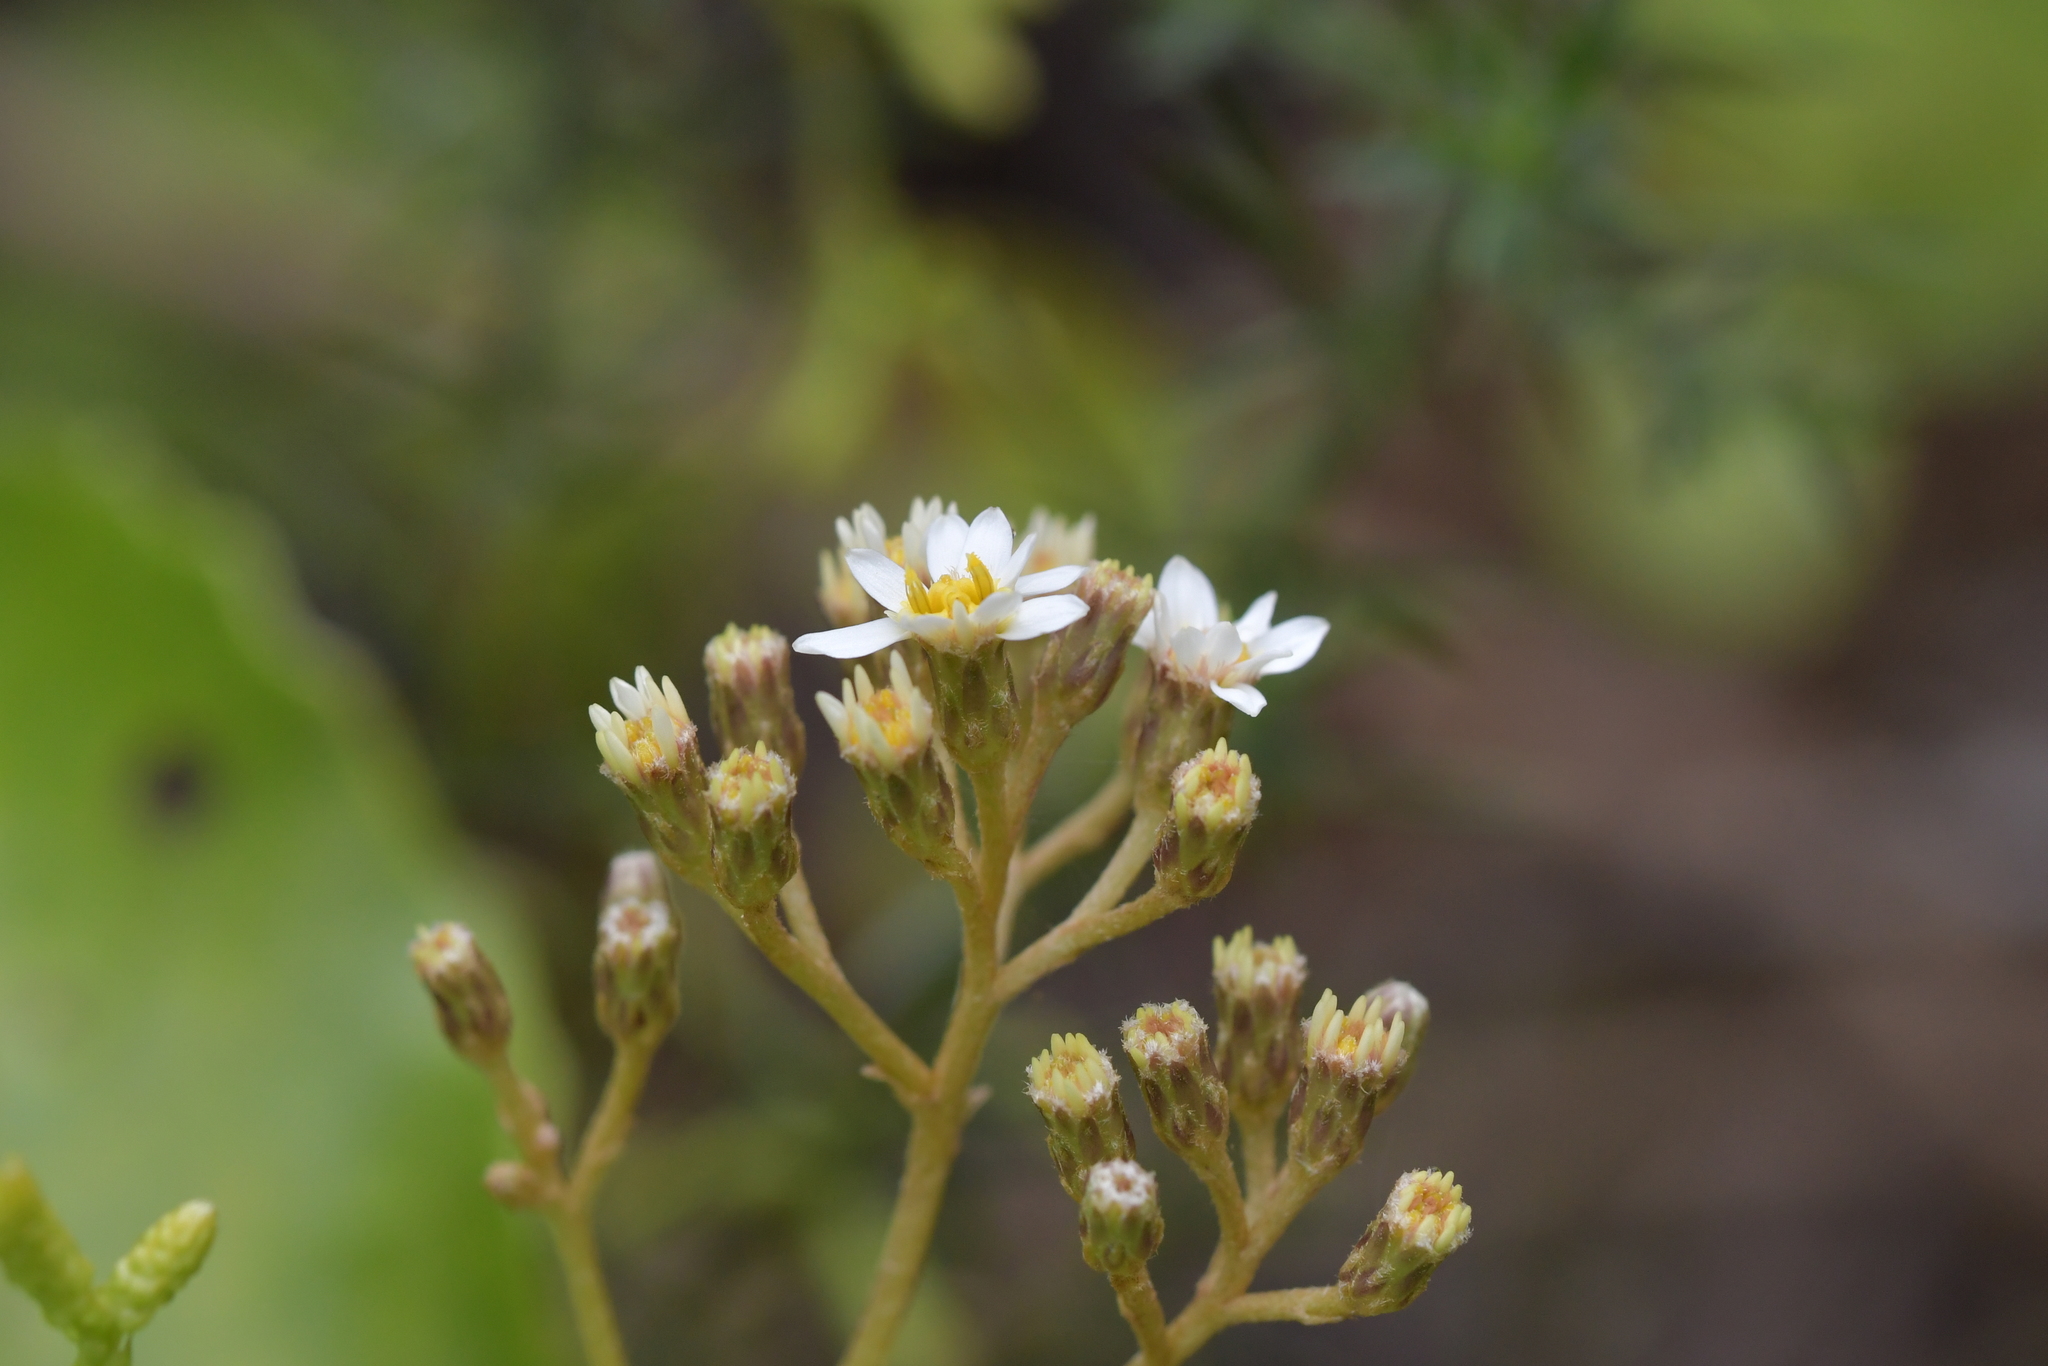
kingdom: Plantae
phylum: Tracheophyta
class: Magnoliopsida
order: Asterales
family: Asteraceae
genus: Olearia
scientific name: Olearia arborescens
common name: Glossy tree daisy
